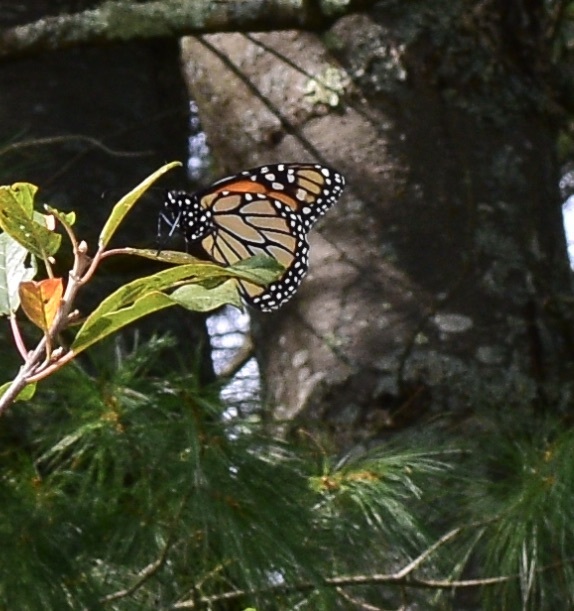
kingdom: Animalia
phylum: Arthropoda
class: Insecta
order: Lepidoptera
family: Nymphalidae
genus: Danaus
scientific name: Danaus plexippus
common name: Monarch
